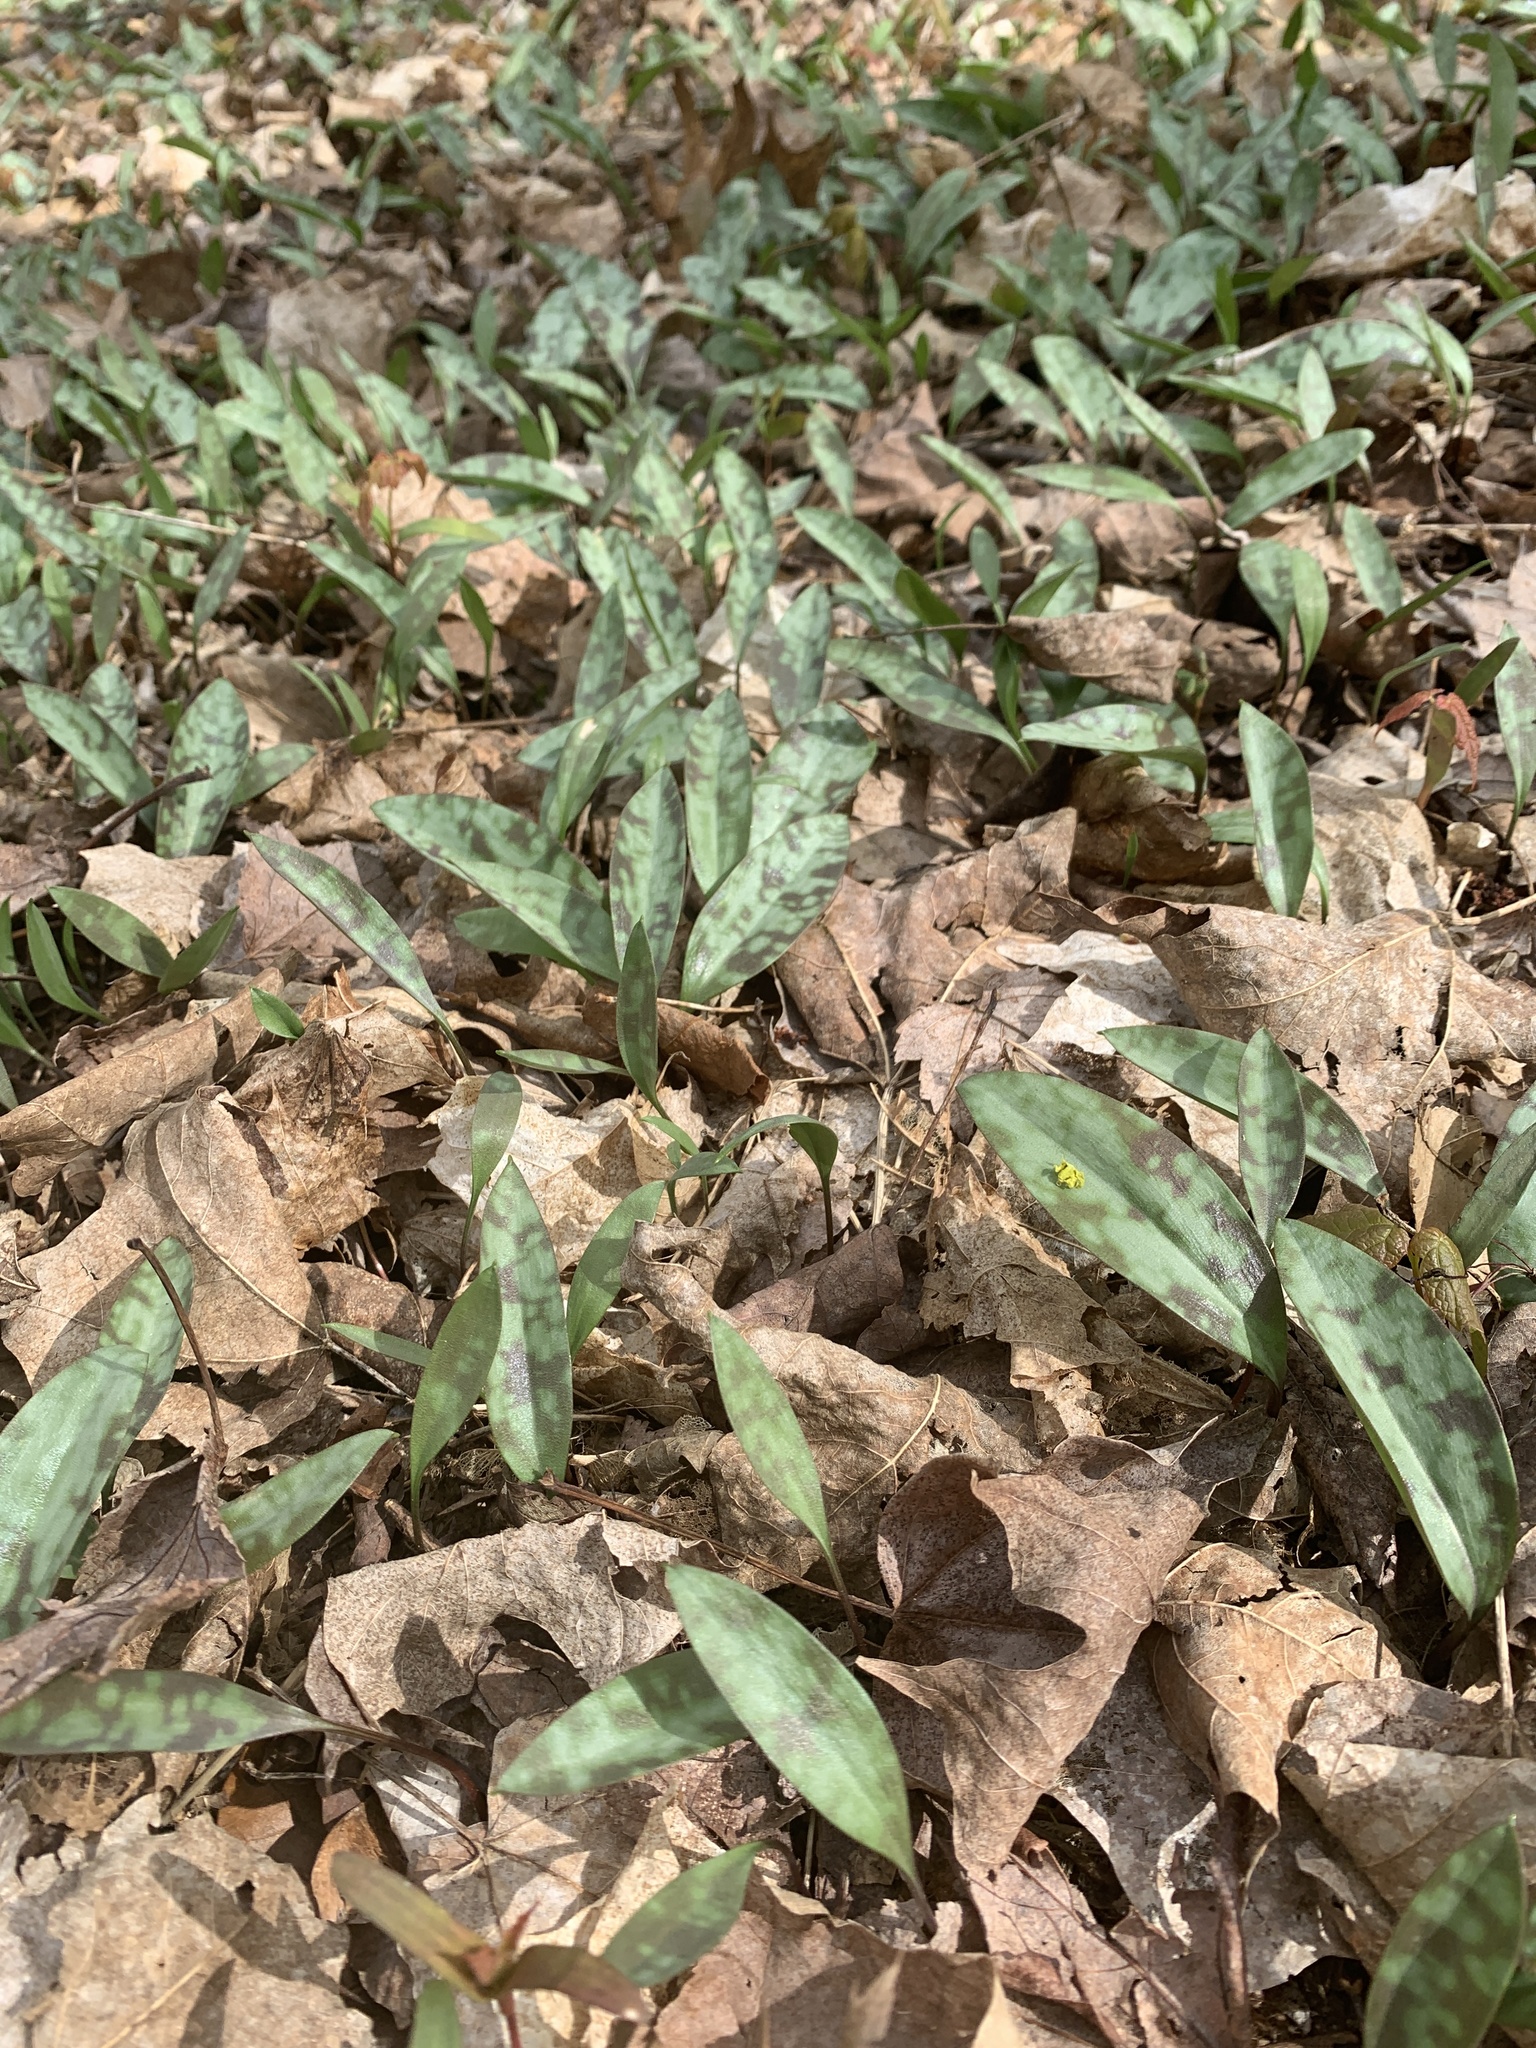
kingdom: Plantae
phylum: Tracheophyta
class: Liliopsida
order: Liliales
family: Liliaceae
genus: Erythronium
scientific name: Erythronium americanum
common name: Yellow adder's-tongue
